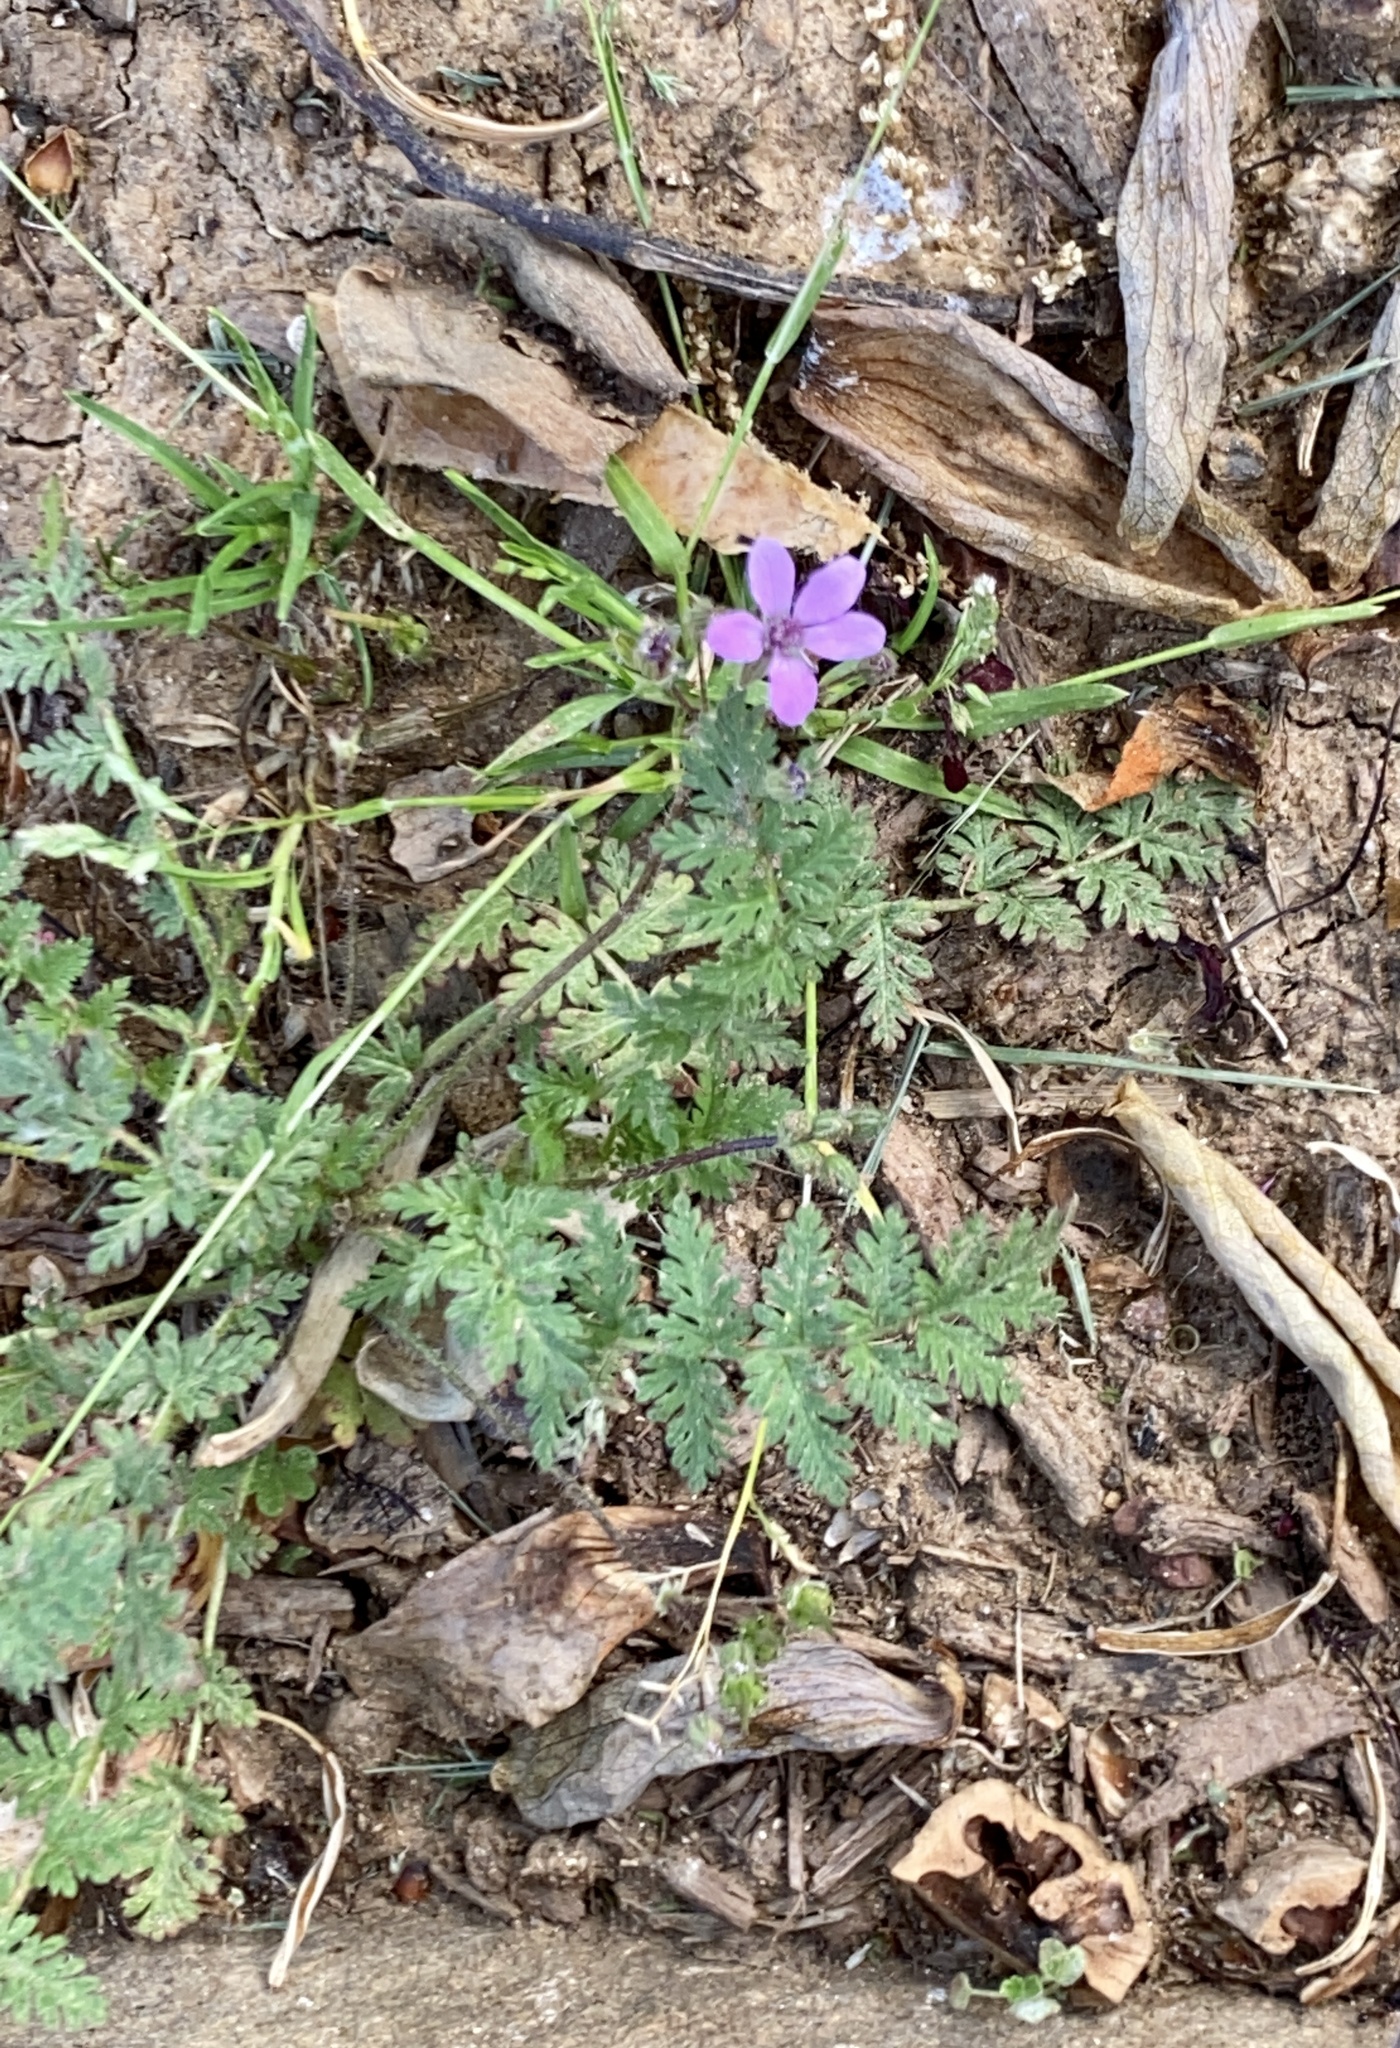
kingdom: Plantae
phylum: Tracheophyta
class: Magnoliopsida
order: Geraniales
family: Geraniaceae
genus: Erodium
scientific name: Erodium cicutarium
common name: Common stork's-bill
